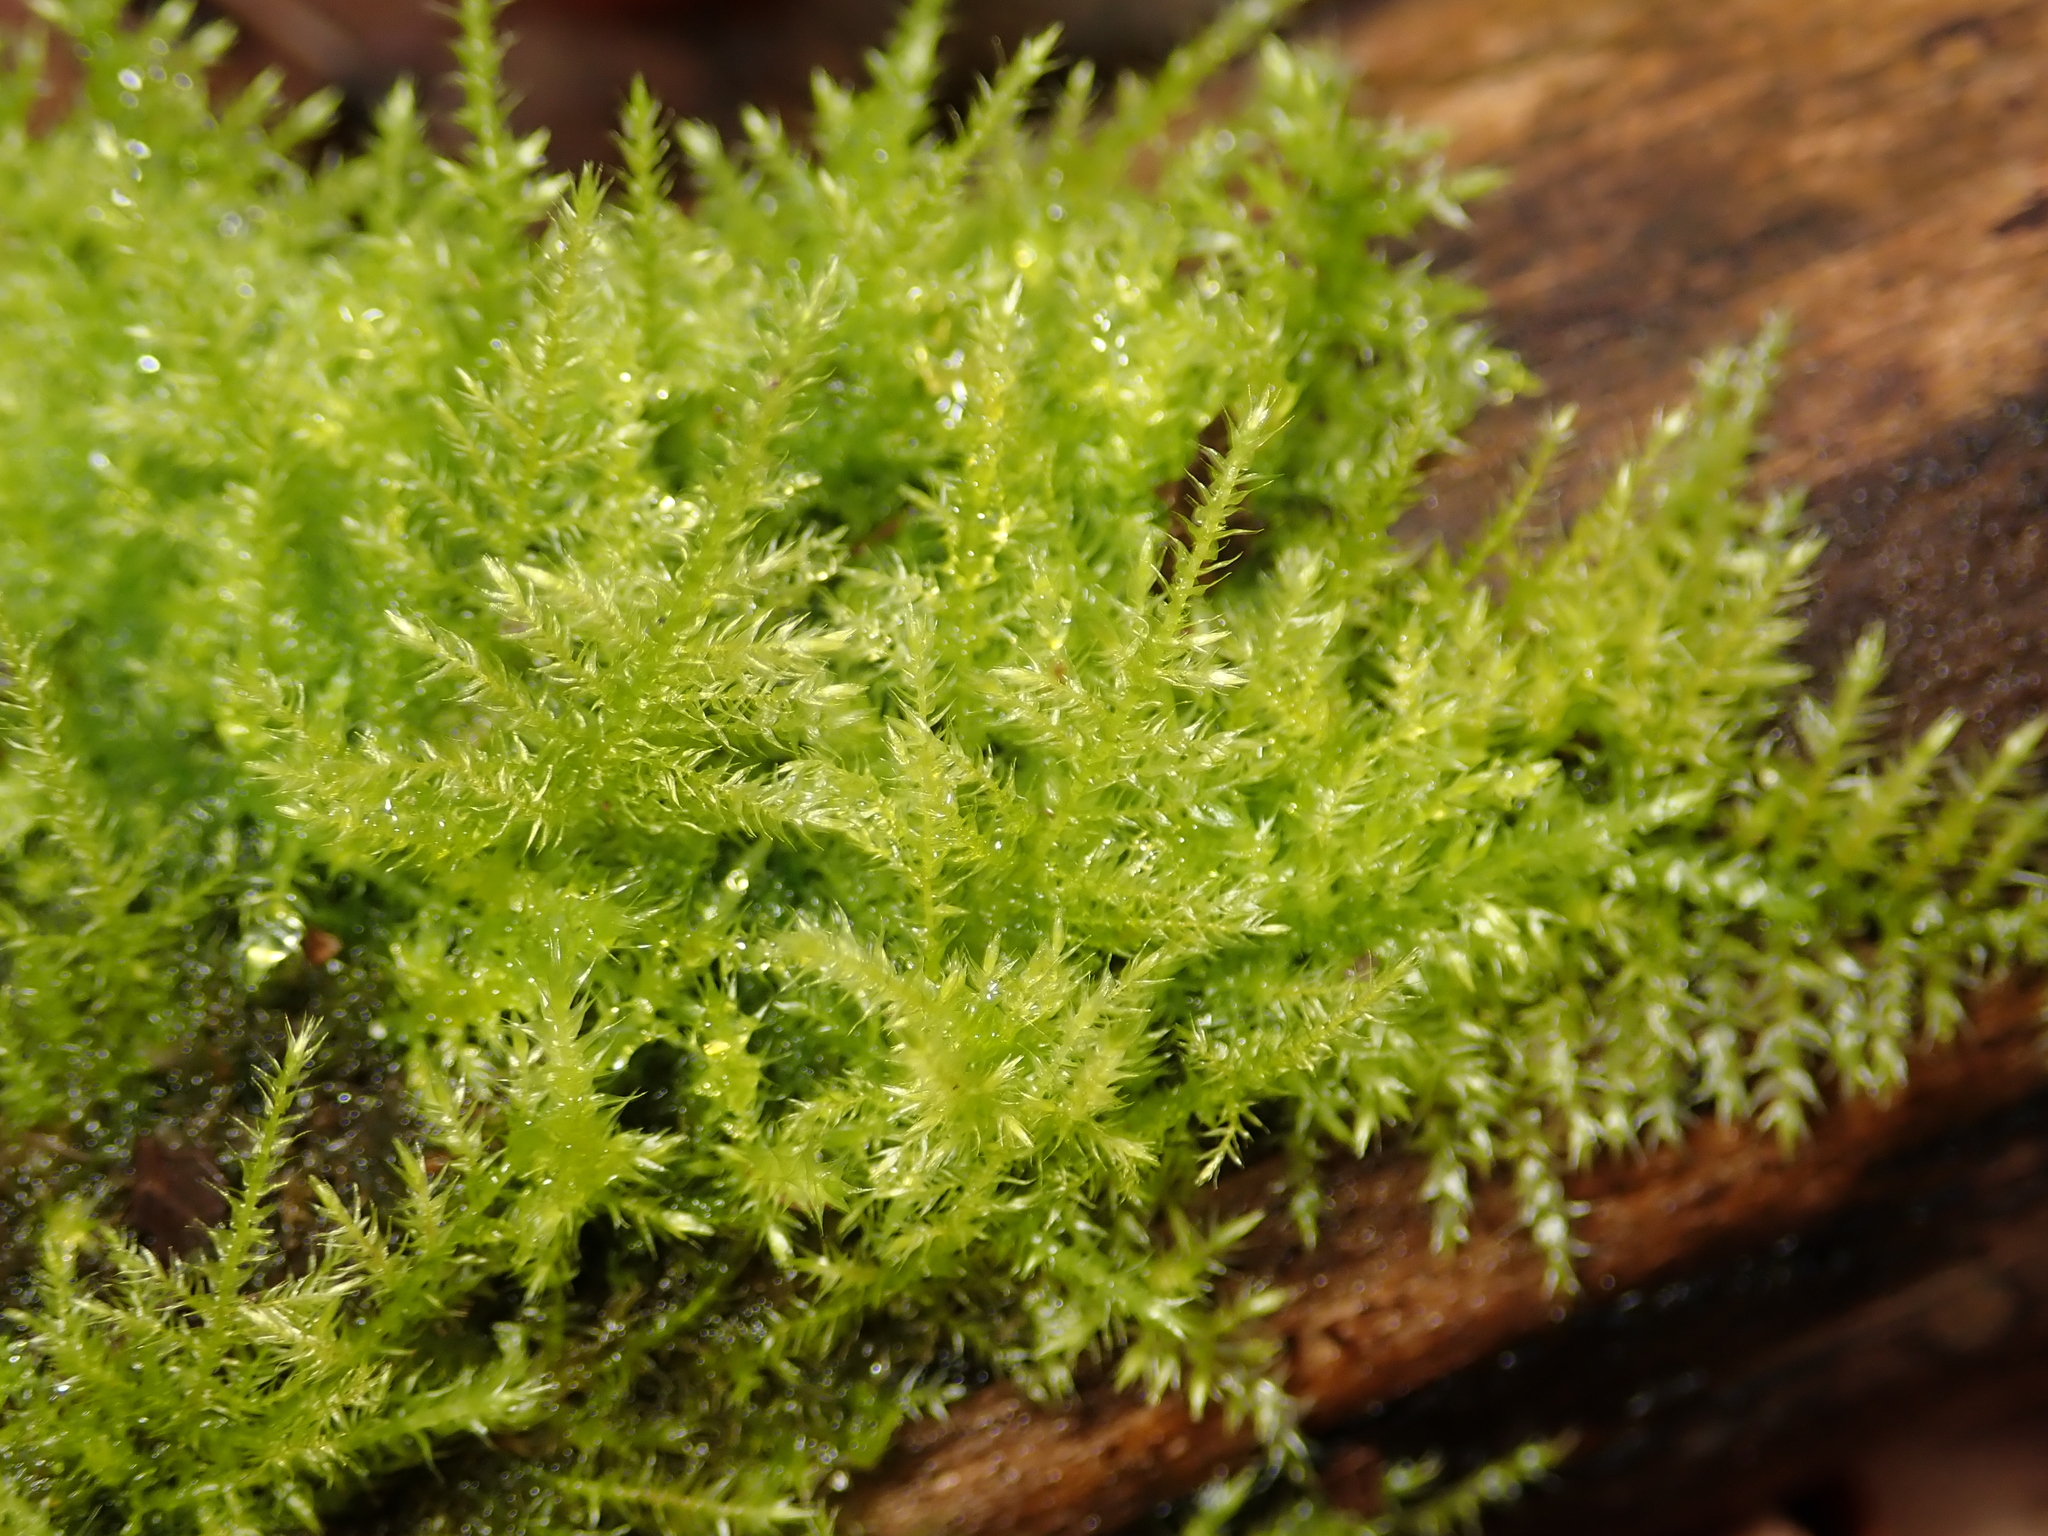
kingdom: Plantae
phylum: Bryophyta
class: Bryopsida
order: Hypnales
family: Brachytheciaceae
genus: Kindbergia
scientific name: Kindbergia praelonga
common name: Slender beaked moss
